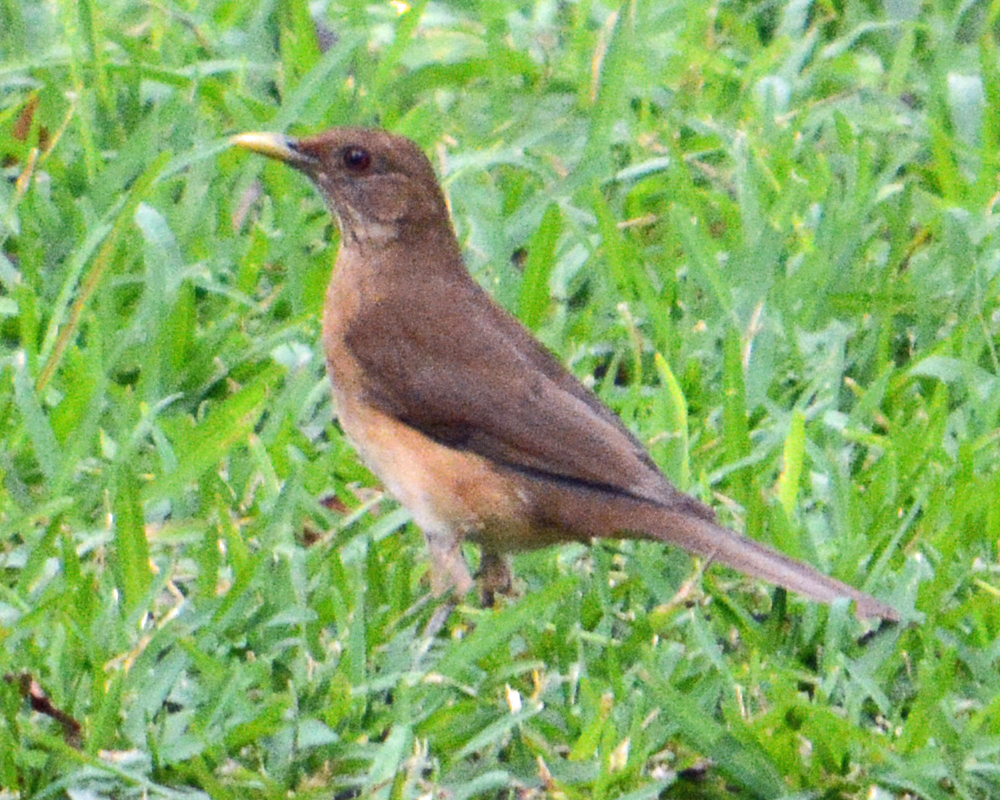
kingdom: Animalia
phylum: Chordata
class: Aves
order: Passeriformes
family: Turdidae
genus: Turdus
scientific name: Turdus grayi
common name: Clay-colored thrush
